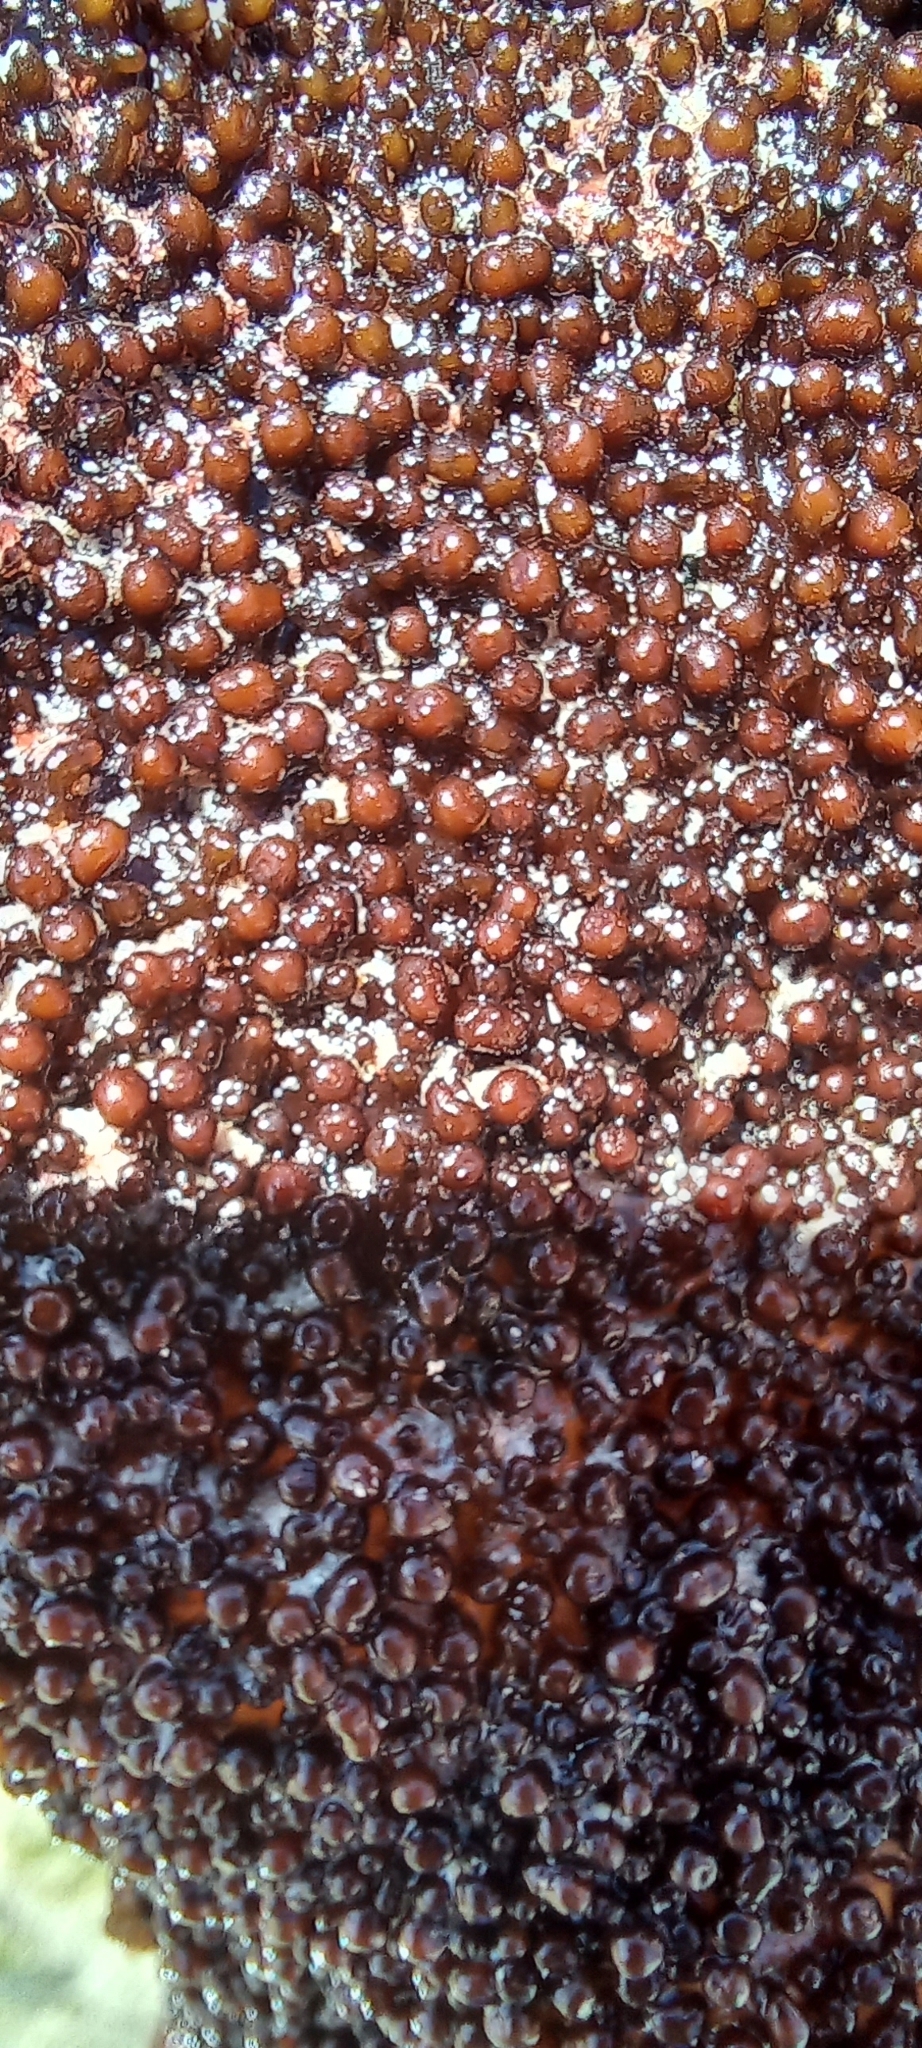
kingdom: Plantae
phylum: Rhodophyta
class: Florideophyceae
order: Gigartinales
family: Gigartinaceae
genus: Gigartina
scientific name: Gigartina
